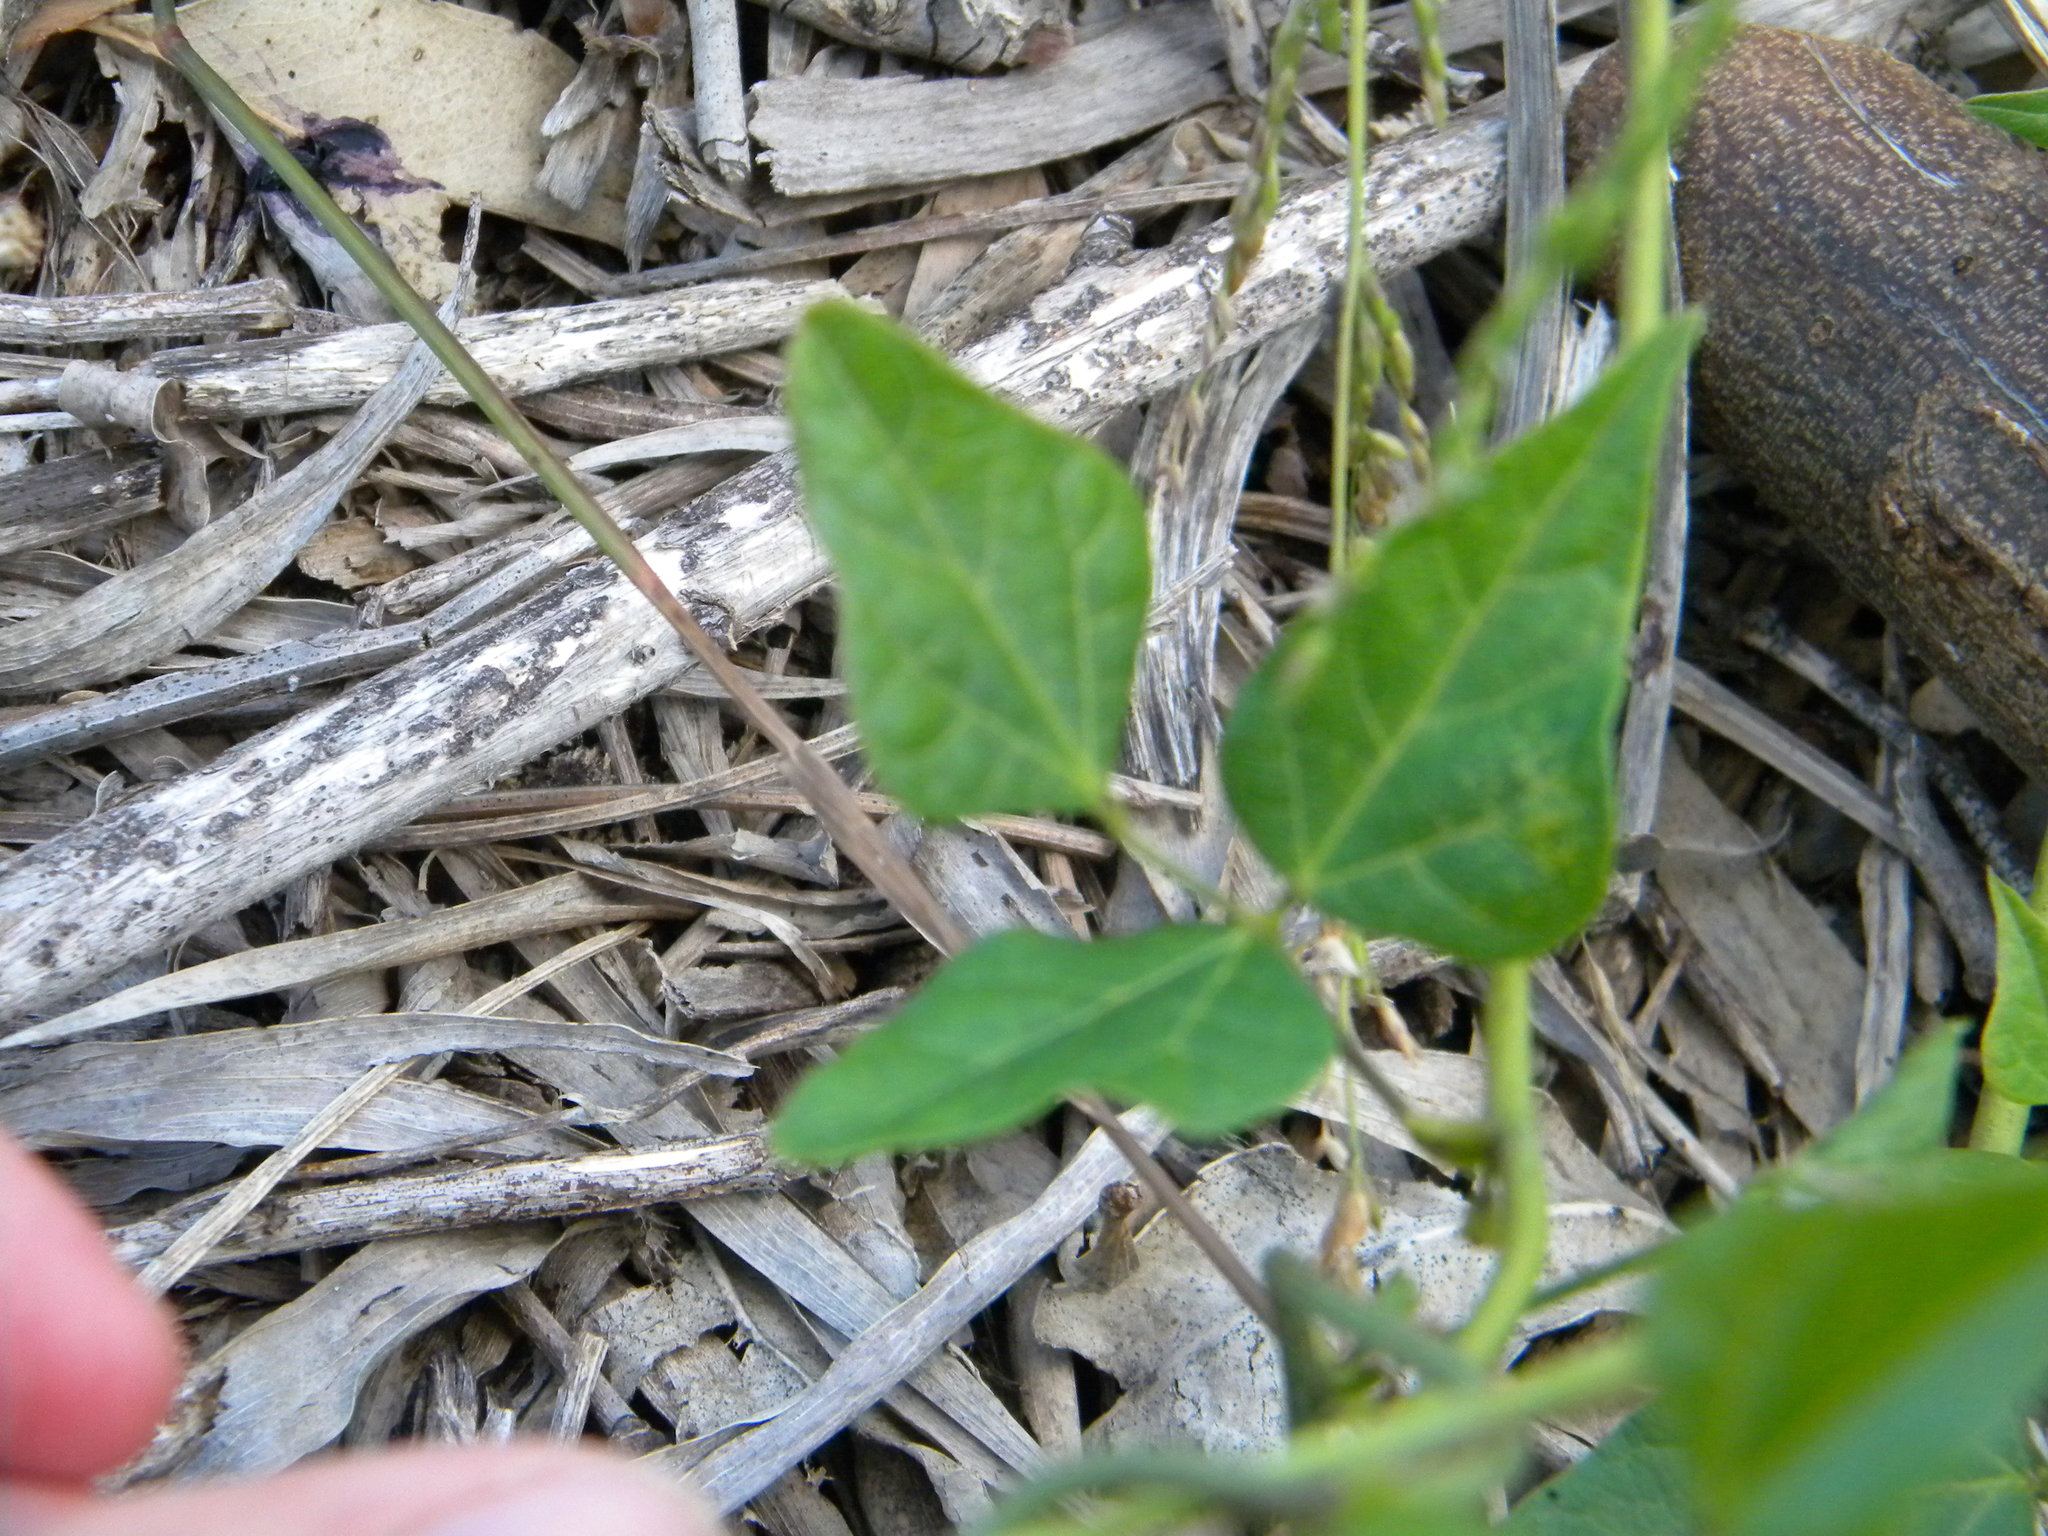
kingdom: Plantae
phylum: Tracheophyta
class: Magnoliopsida
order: Fabales
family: Fabaceae
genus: Dipogon
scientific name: Dipogon lignosus
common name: Okie bean
